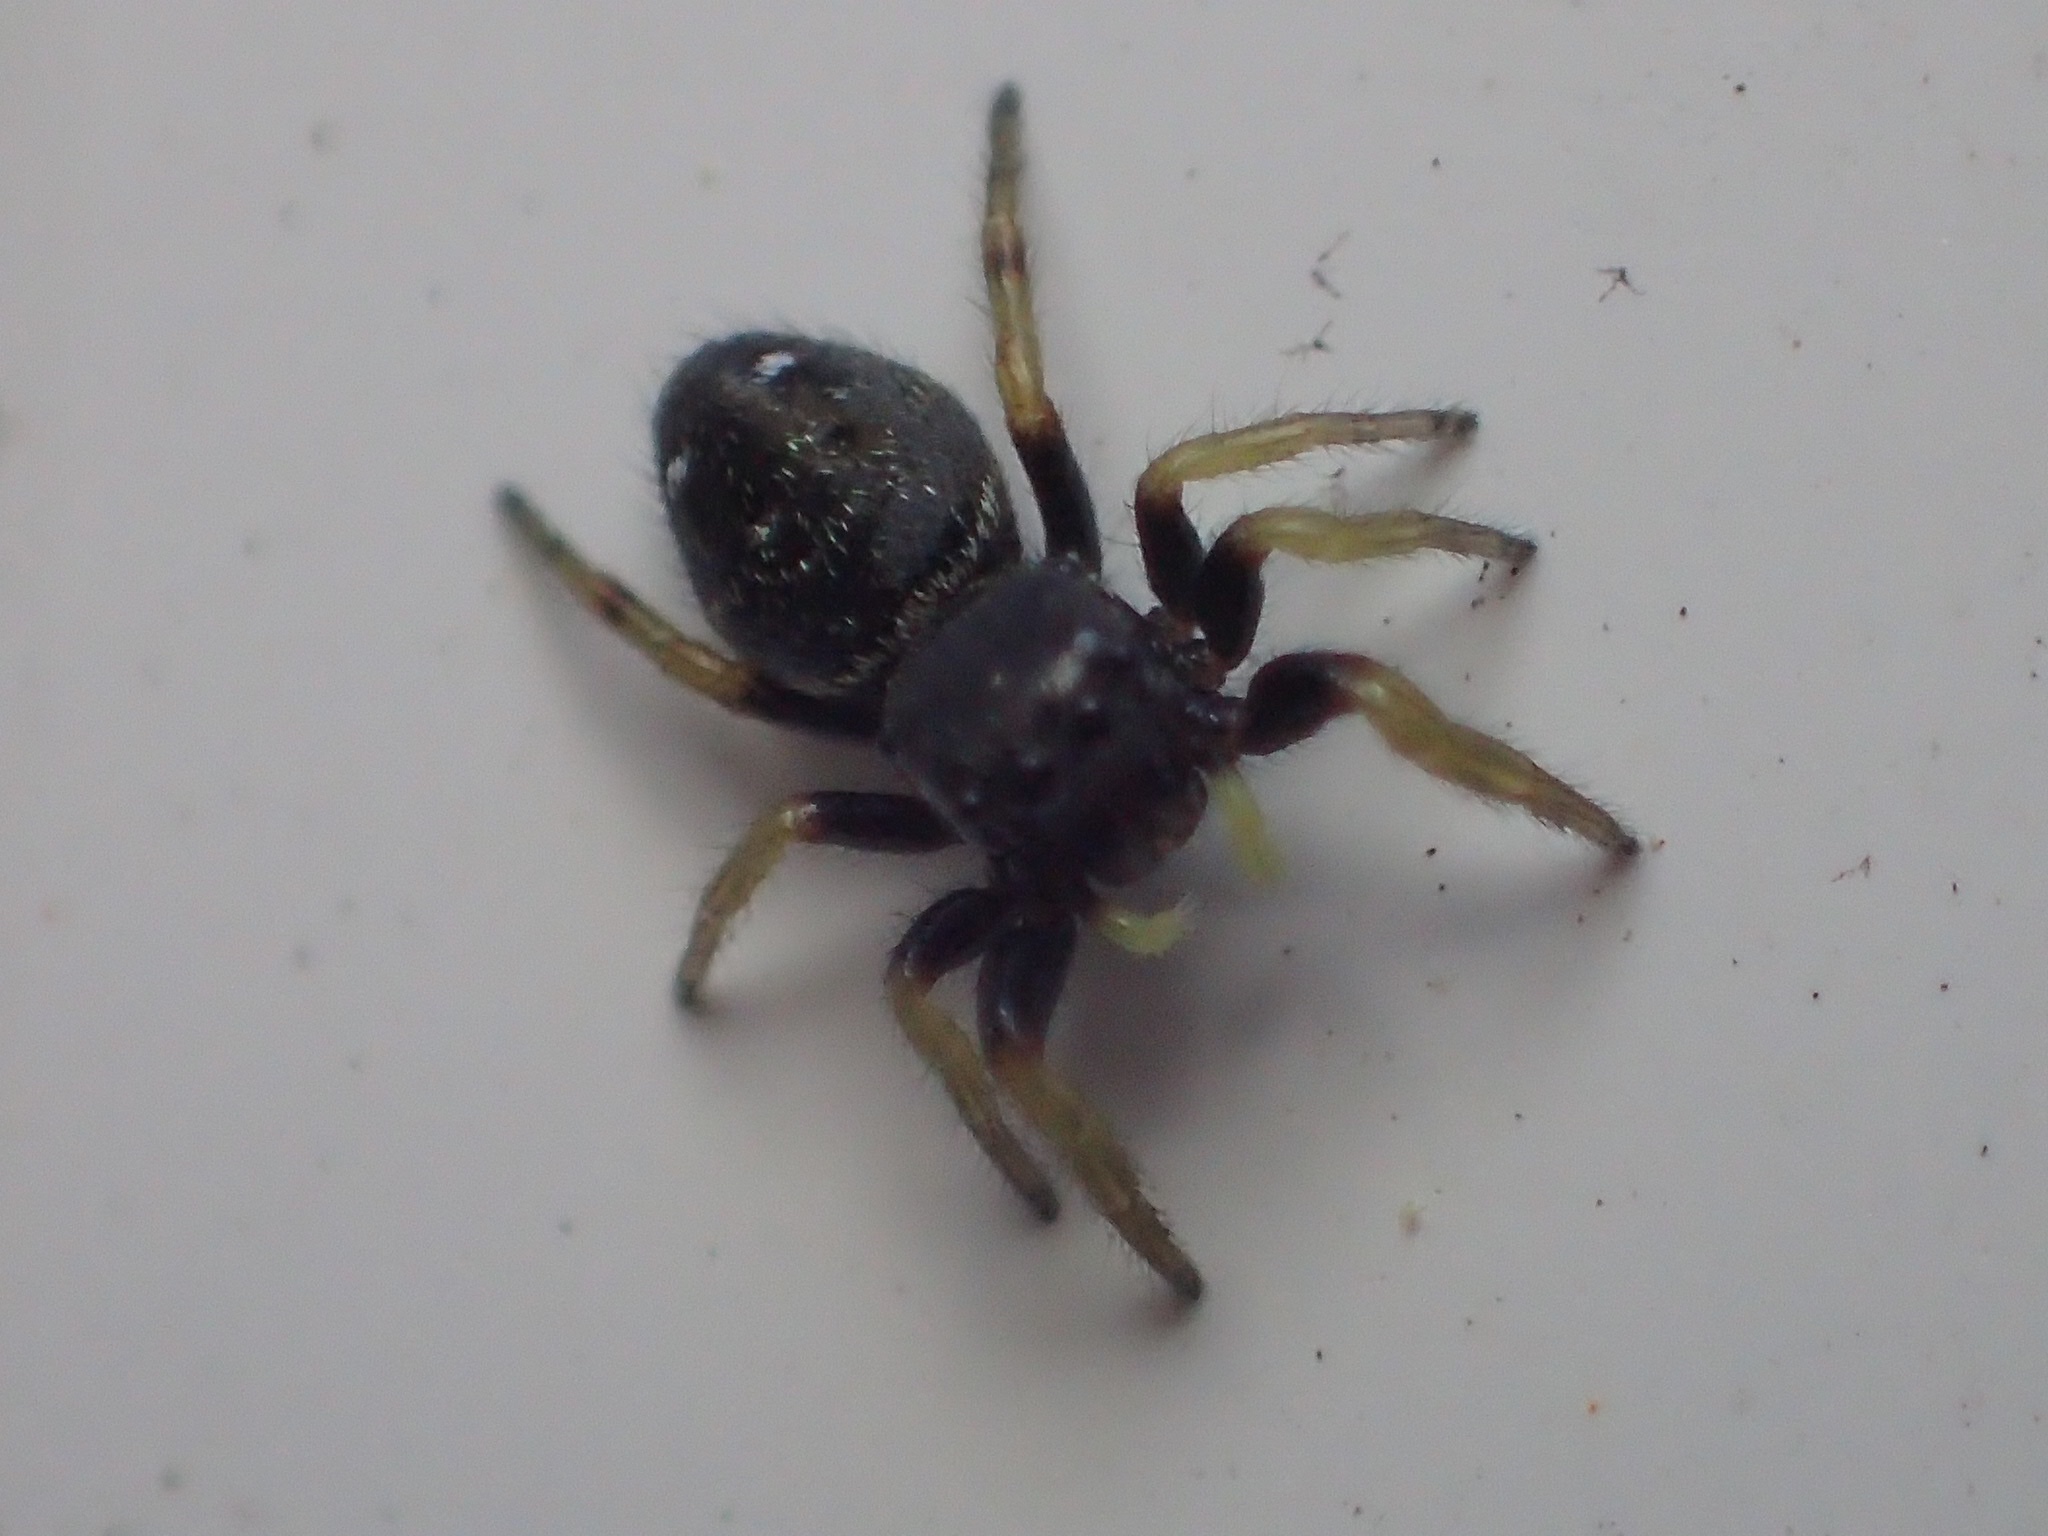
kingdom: Animalia
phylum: Arthropoda
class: Arachnida
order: Araneae
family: Salticidae
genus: Phidippus
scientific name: Phidippus whitmani
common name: Whitman's jumping spider
